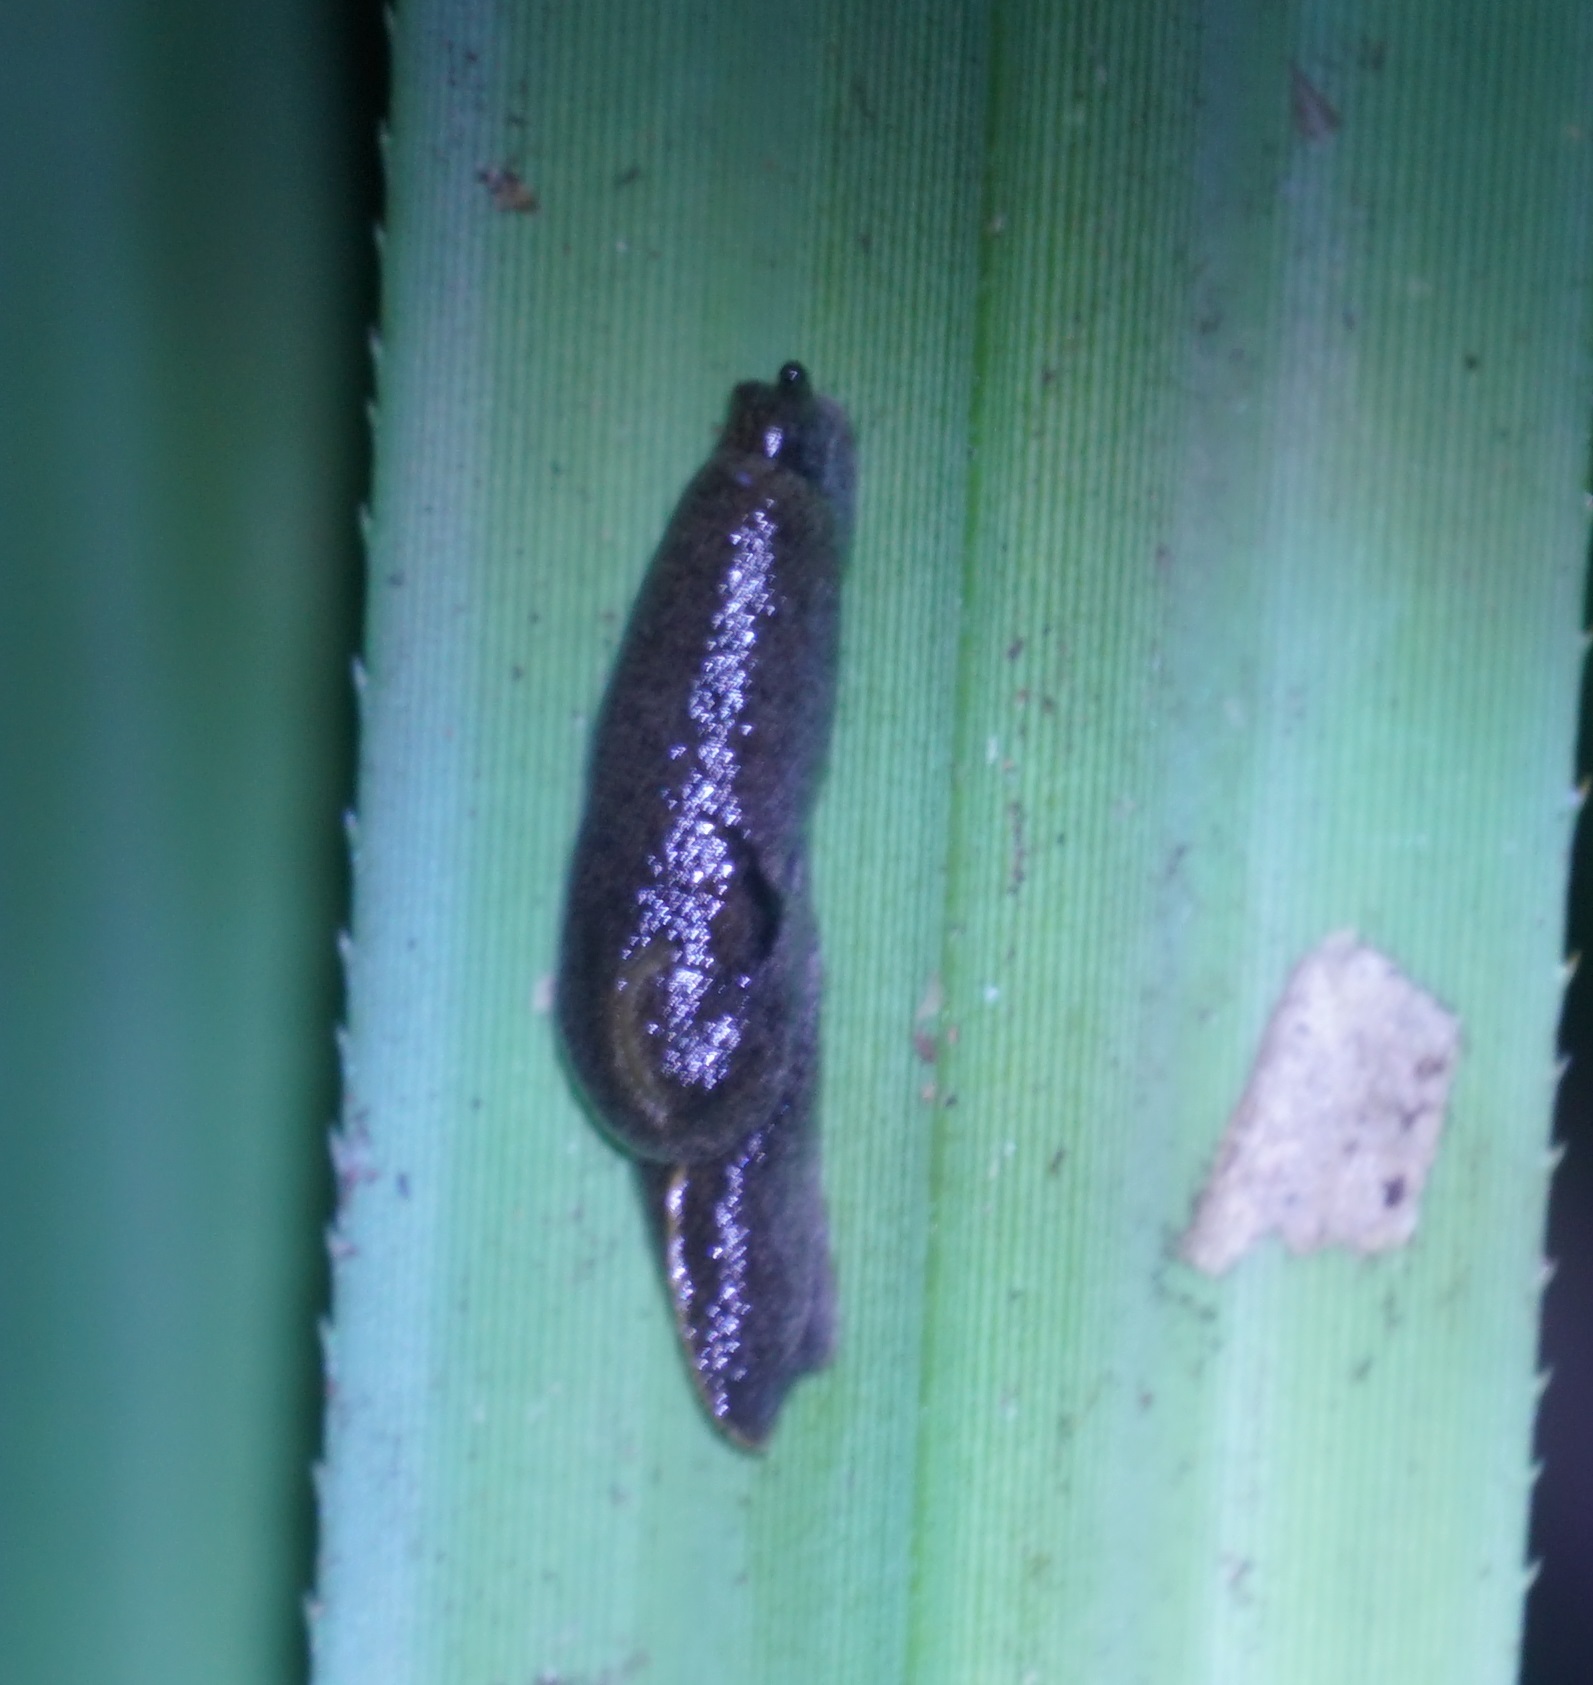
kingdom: Animalia
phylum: Mollusca
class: Gastropoda
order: Stylommatophora
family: Helicarionidae
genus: Parmacochlea
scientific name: Parmacochlea balios
